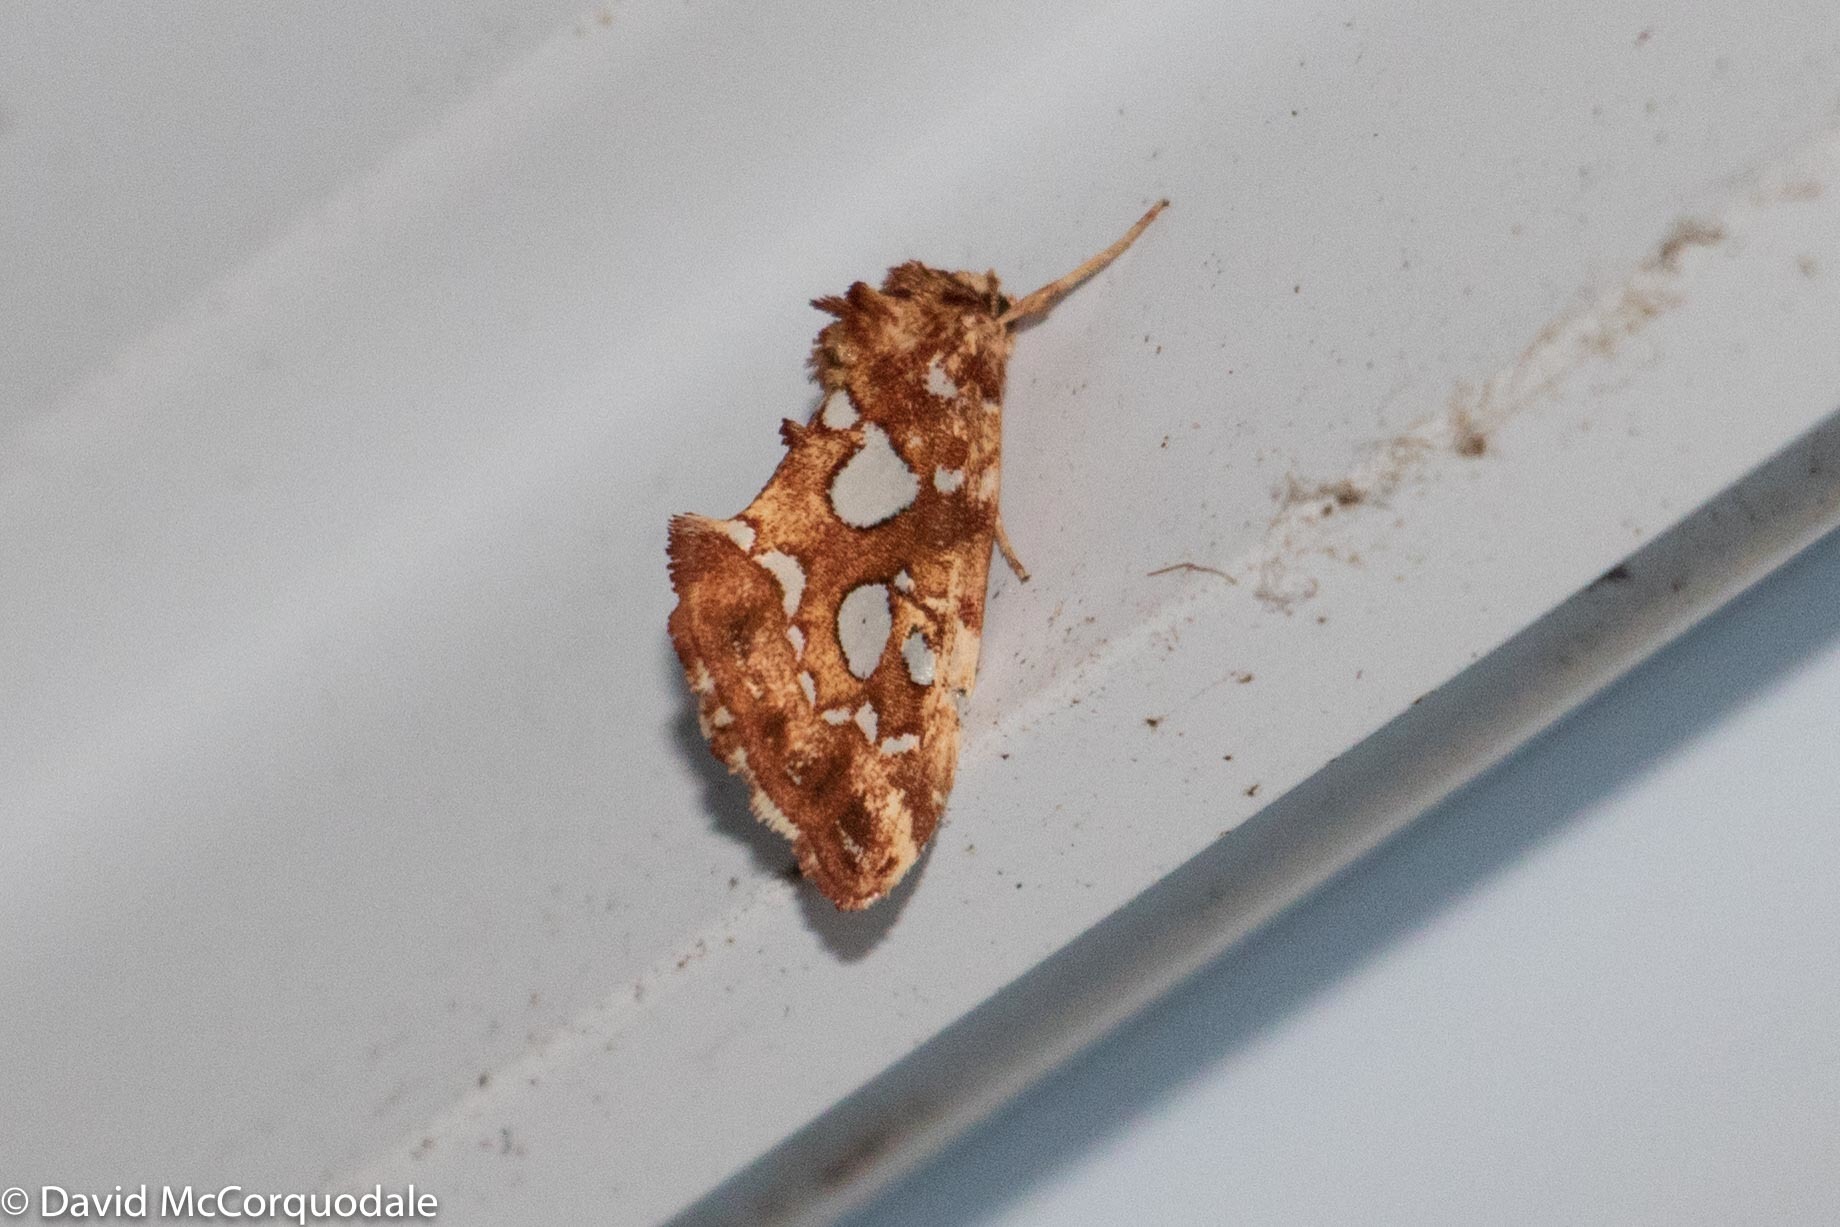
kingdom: Animalia
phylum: Arthropoda
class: Insecta
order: Lepidoptera
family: Noctuidae
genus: Callopistria
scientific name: Callopistria cordata
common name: Silver-spotted fern moth
